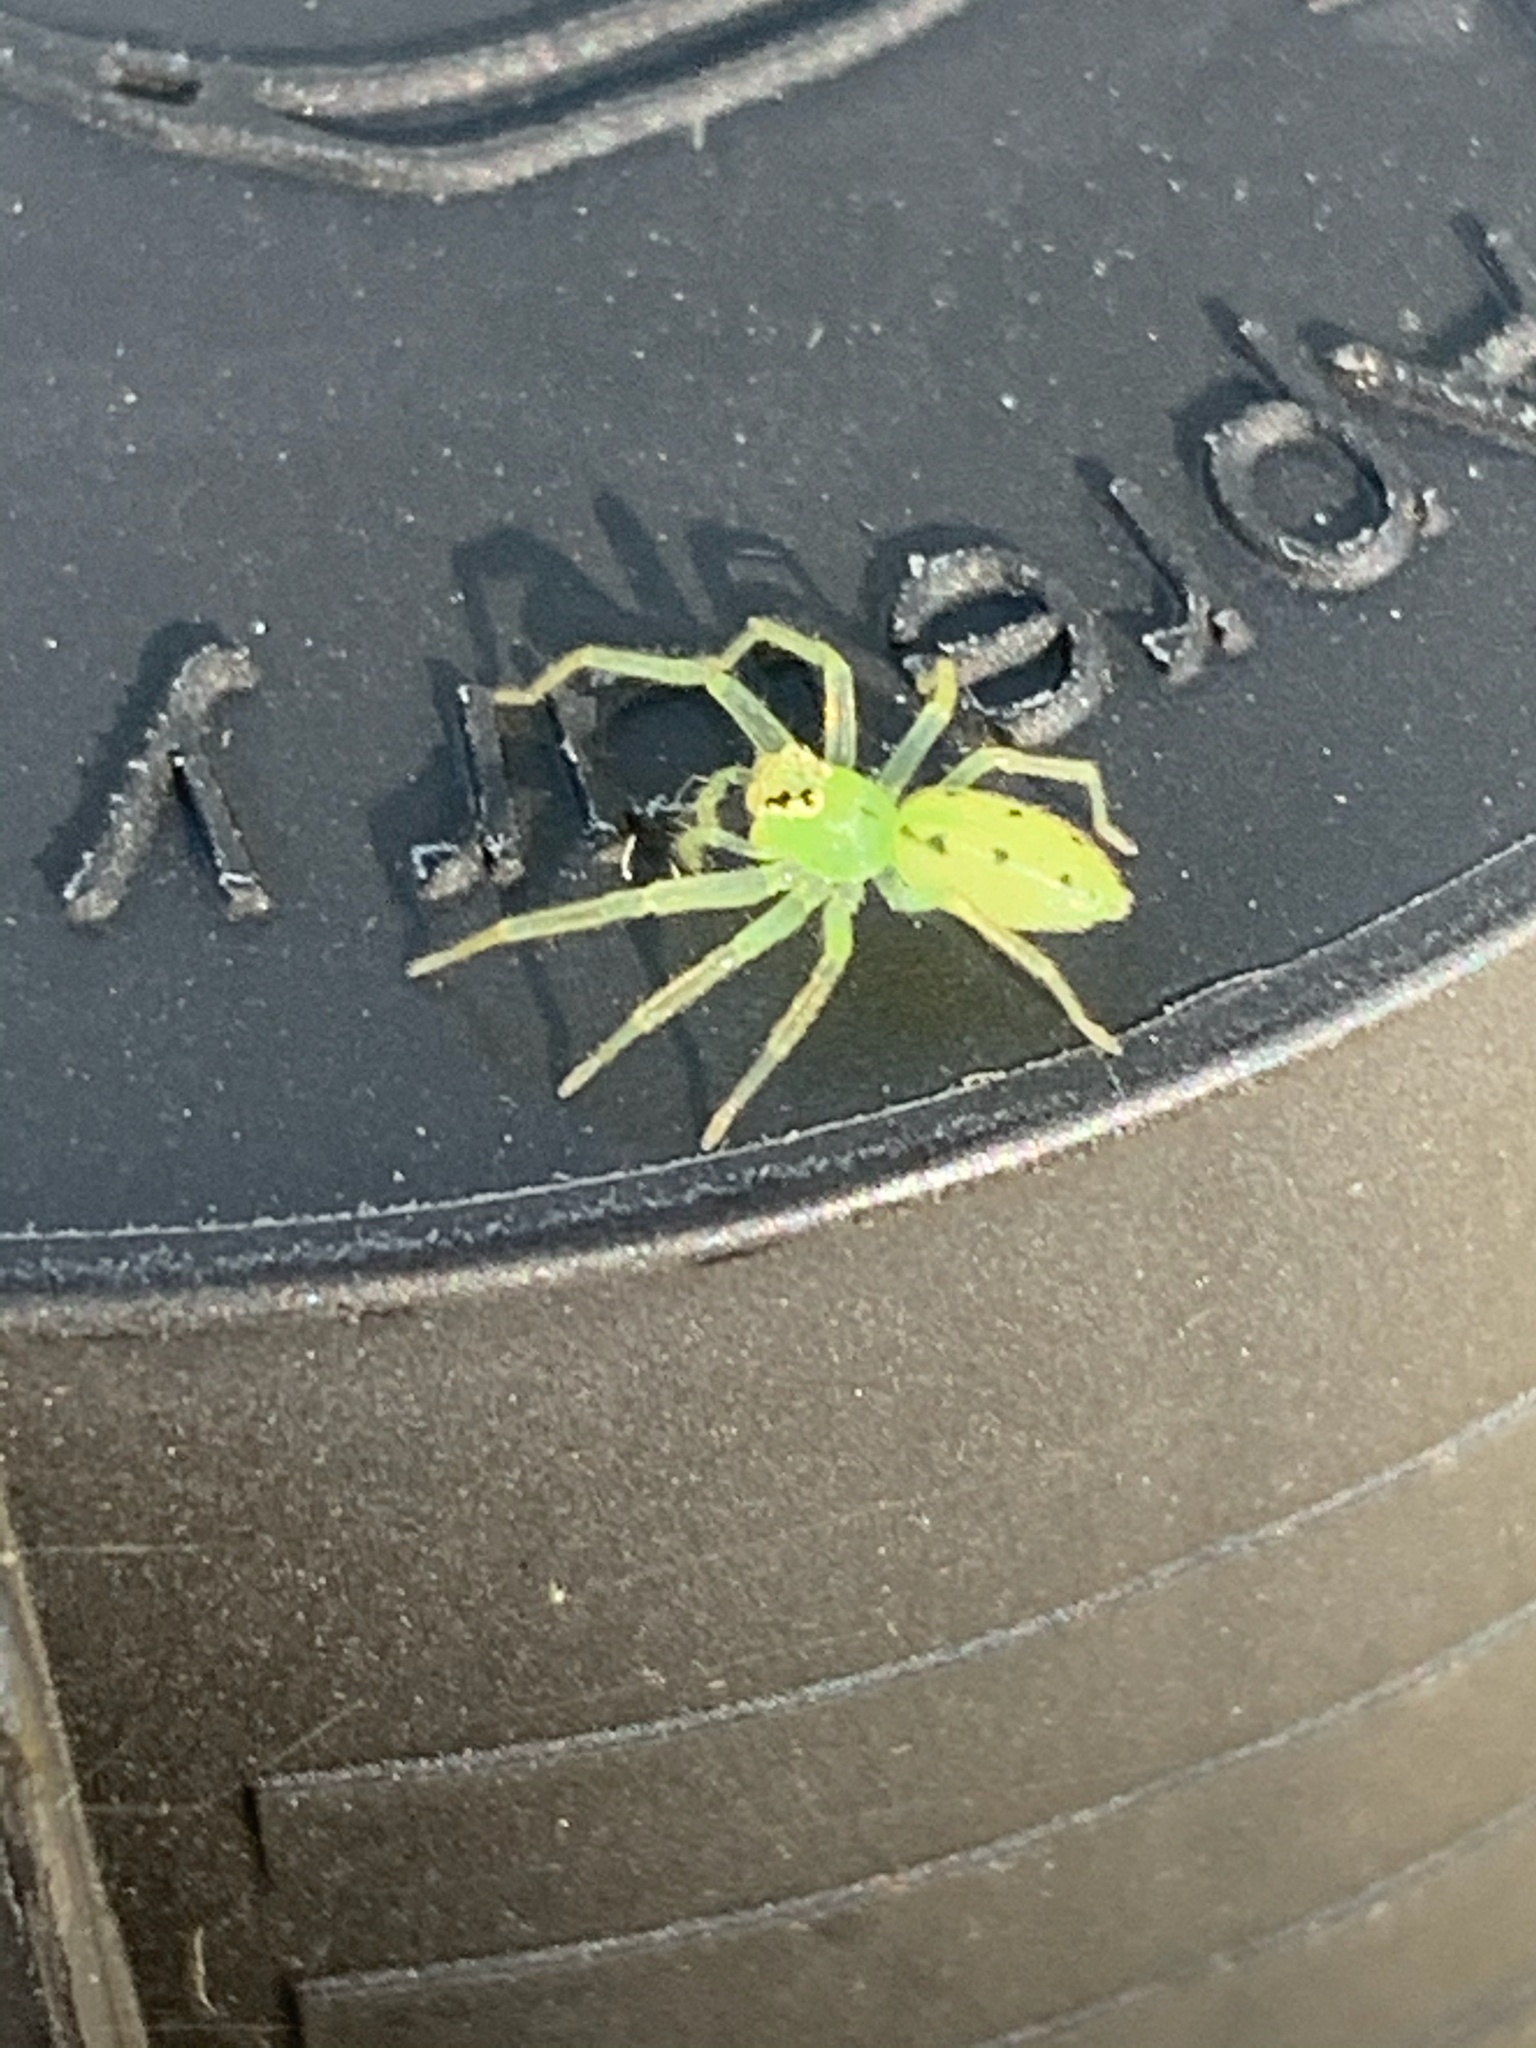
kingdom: Animalia
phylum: Arthropoda
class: Arachnida
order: Araneae
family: Salticidae
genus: Lyssomanes
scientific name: Lyssomanes viridis
